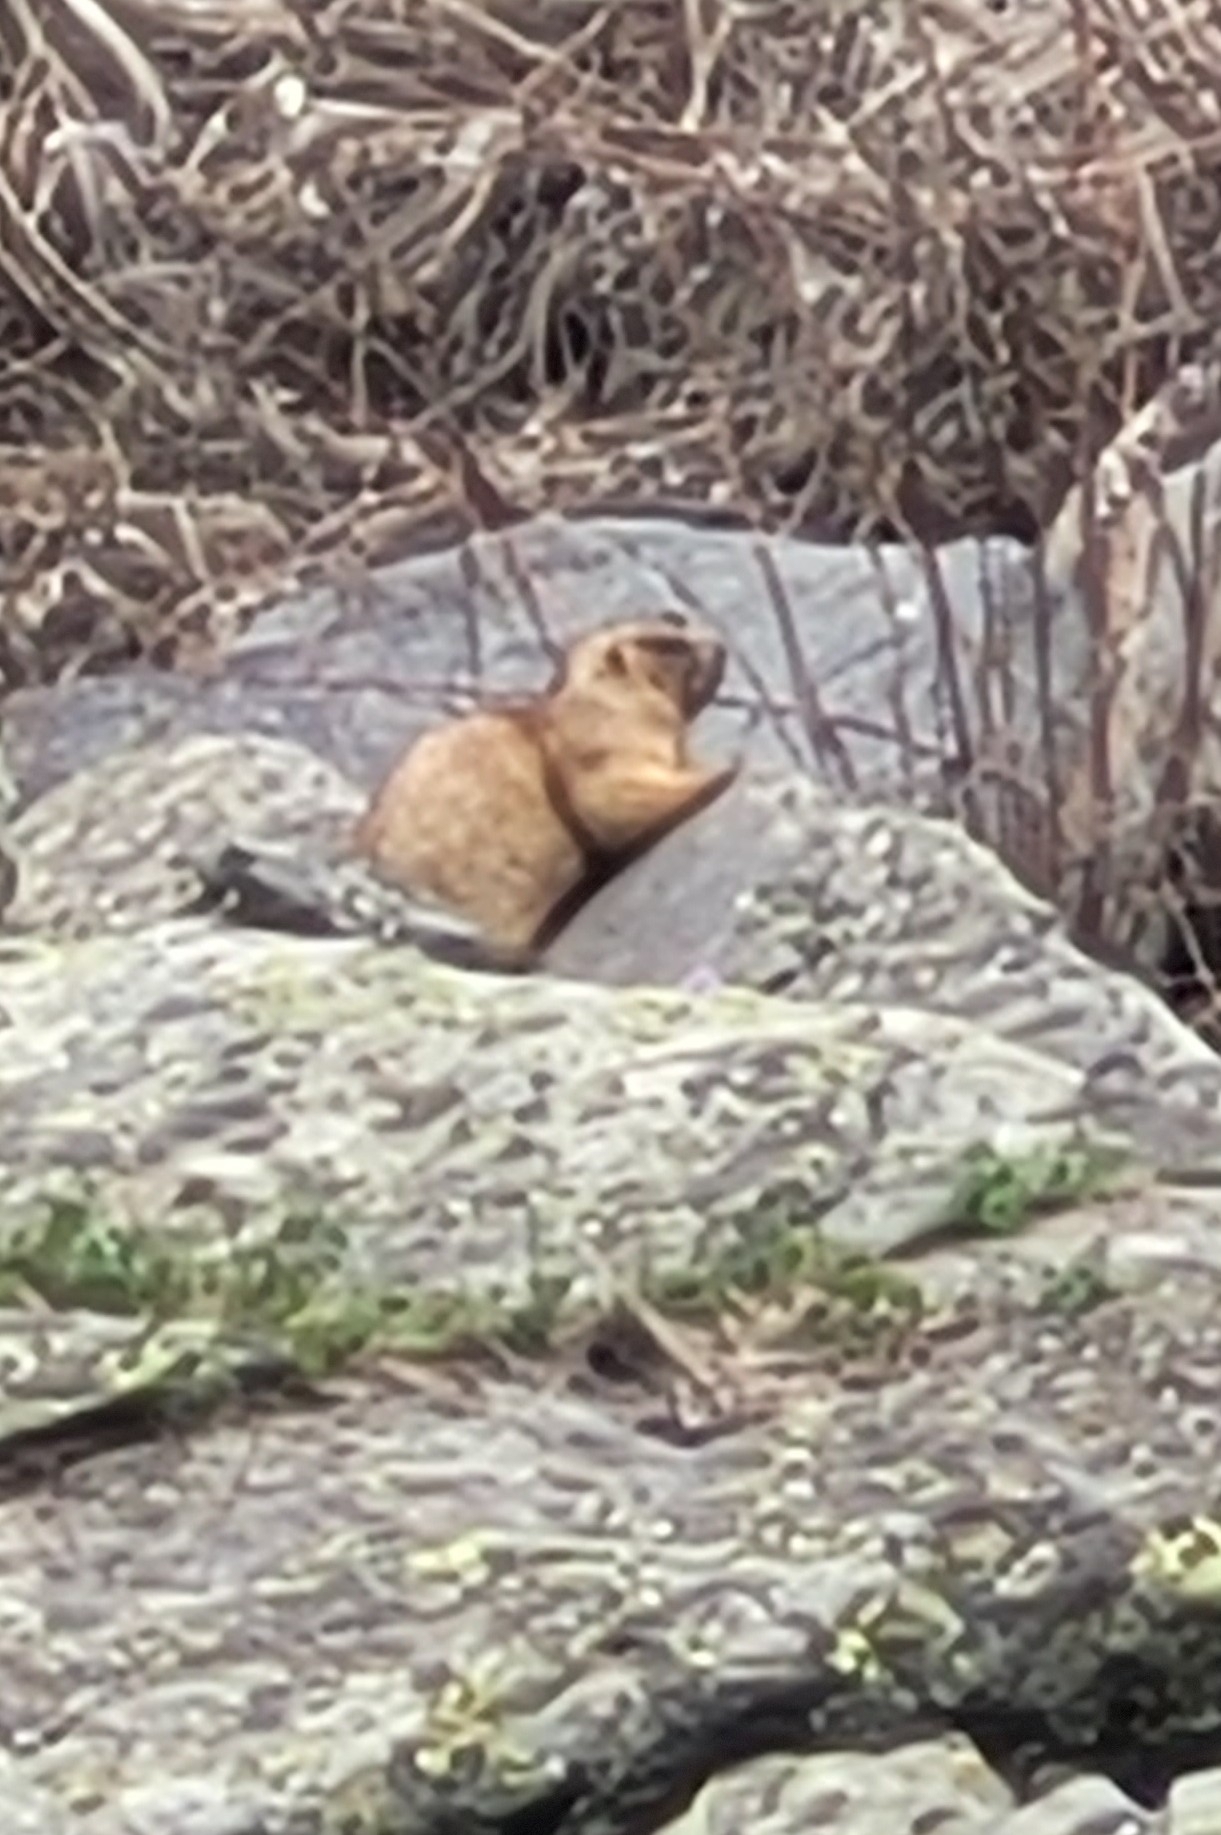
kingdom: Animalia
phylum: Chordata
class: Mammalia
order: Rodentia
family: Sciuridae
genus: Marmota
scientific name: Marmota baibacina
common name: Gray marmot
